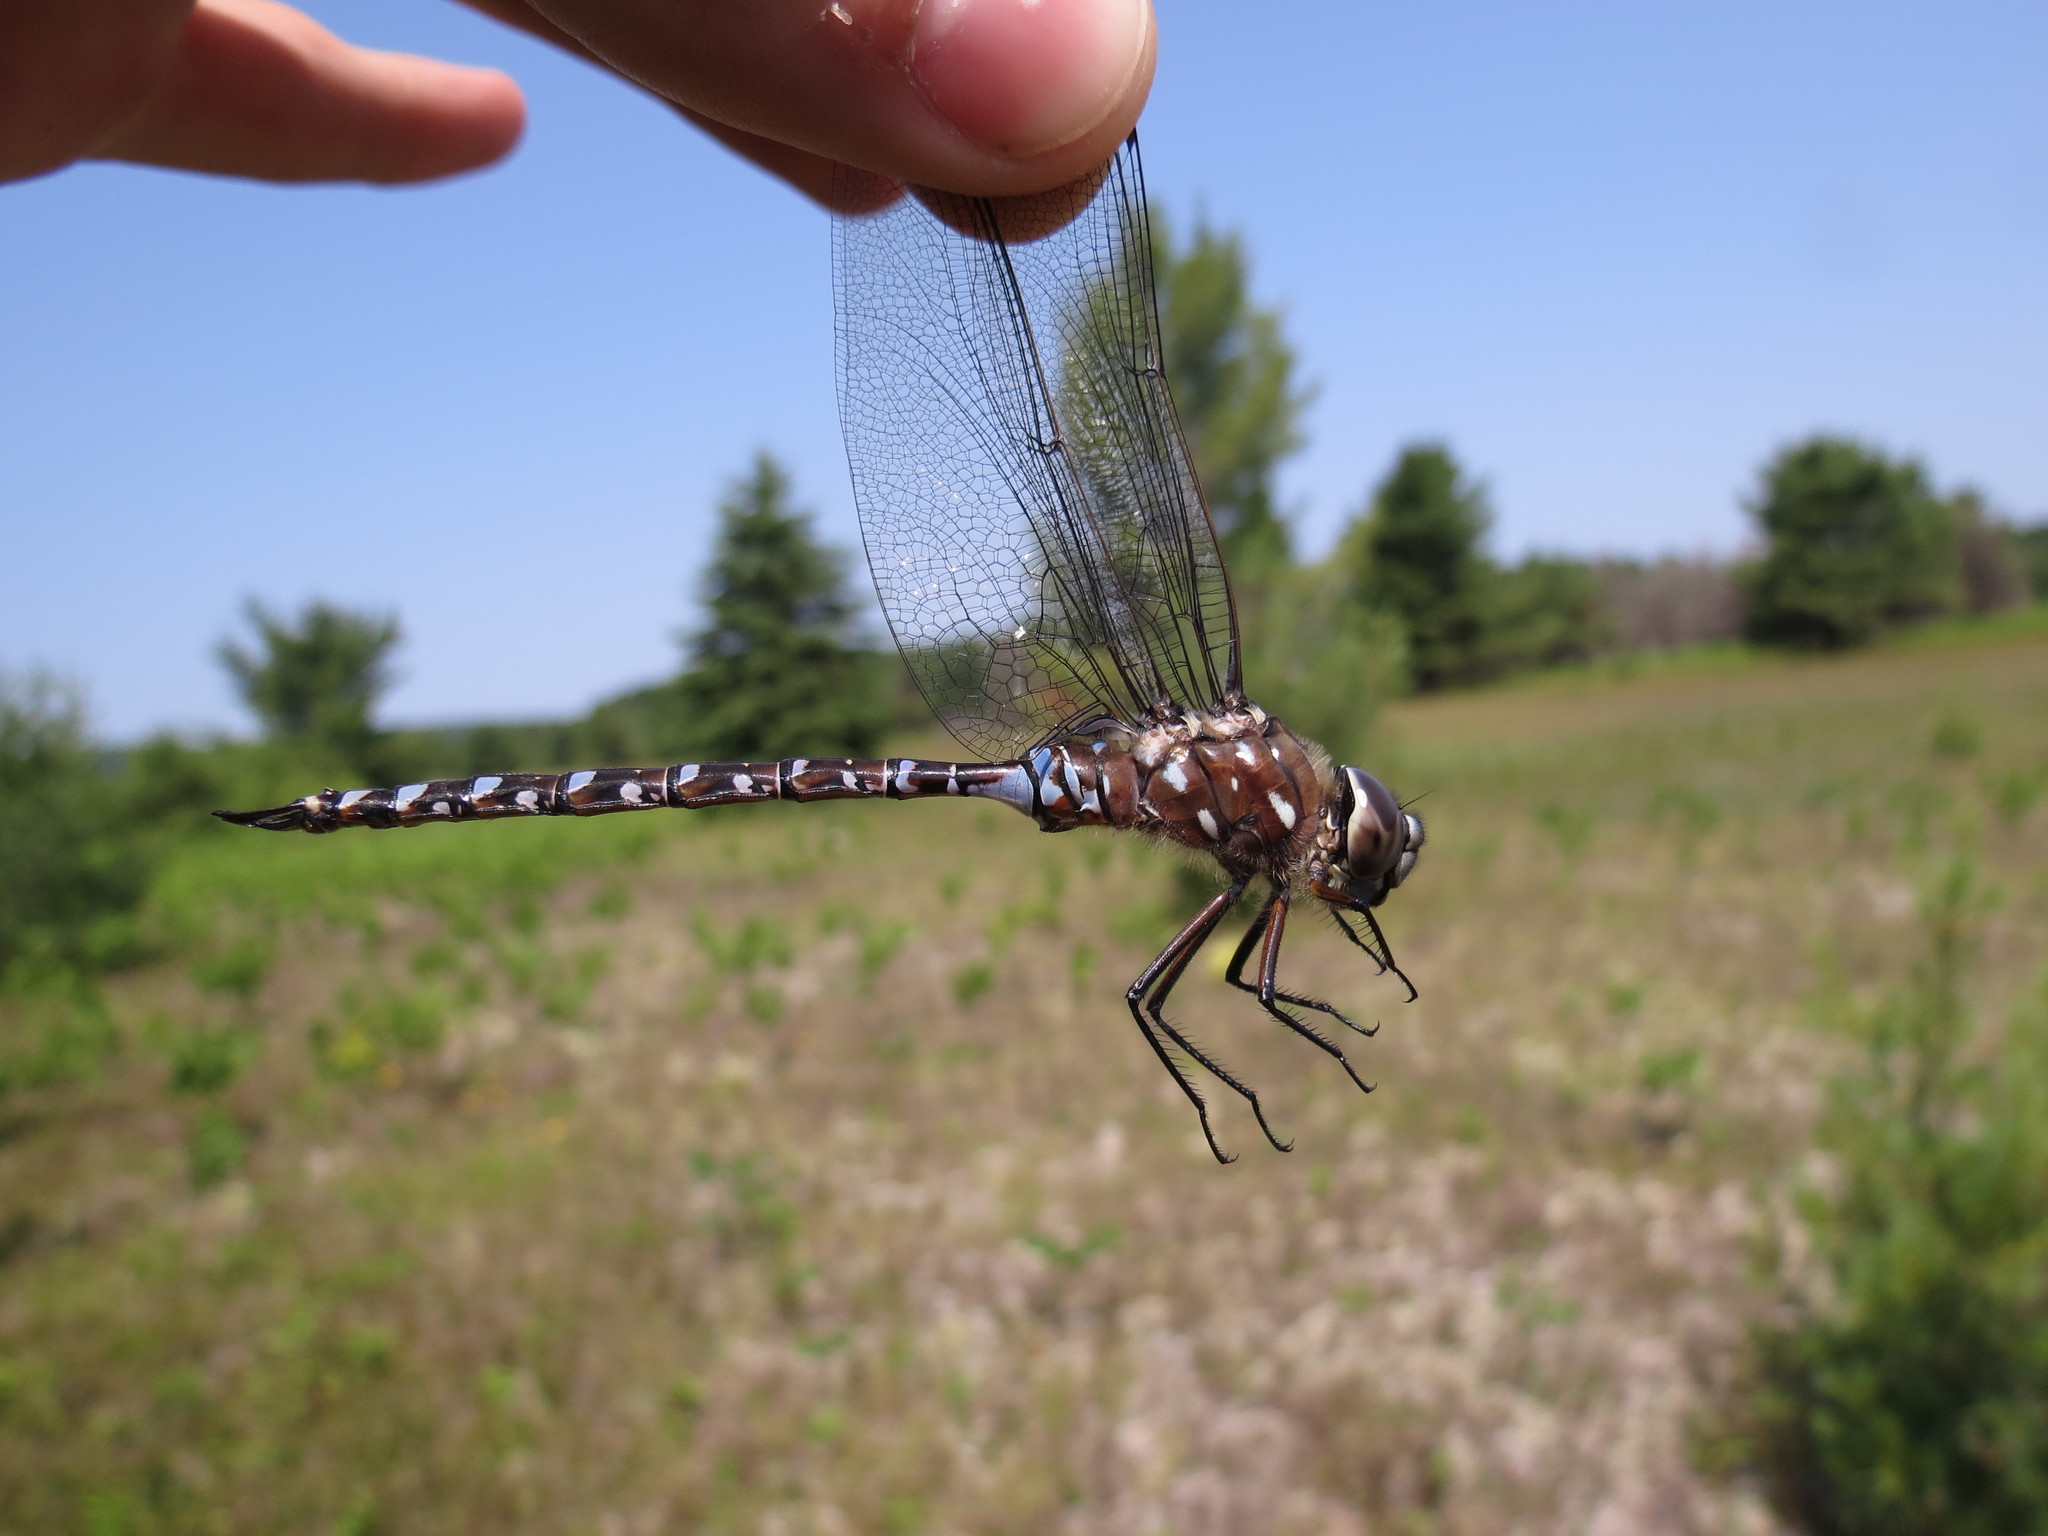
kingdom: Animalia
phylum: Arthropoda
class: Insecta
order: Odonata
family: Aeshnidae
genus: Aeshna
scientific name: Aeshna interrupta
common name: Variable darner
